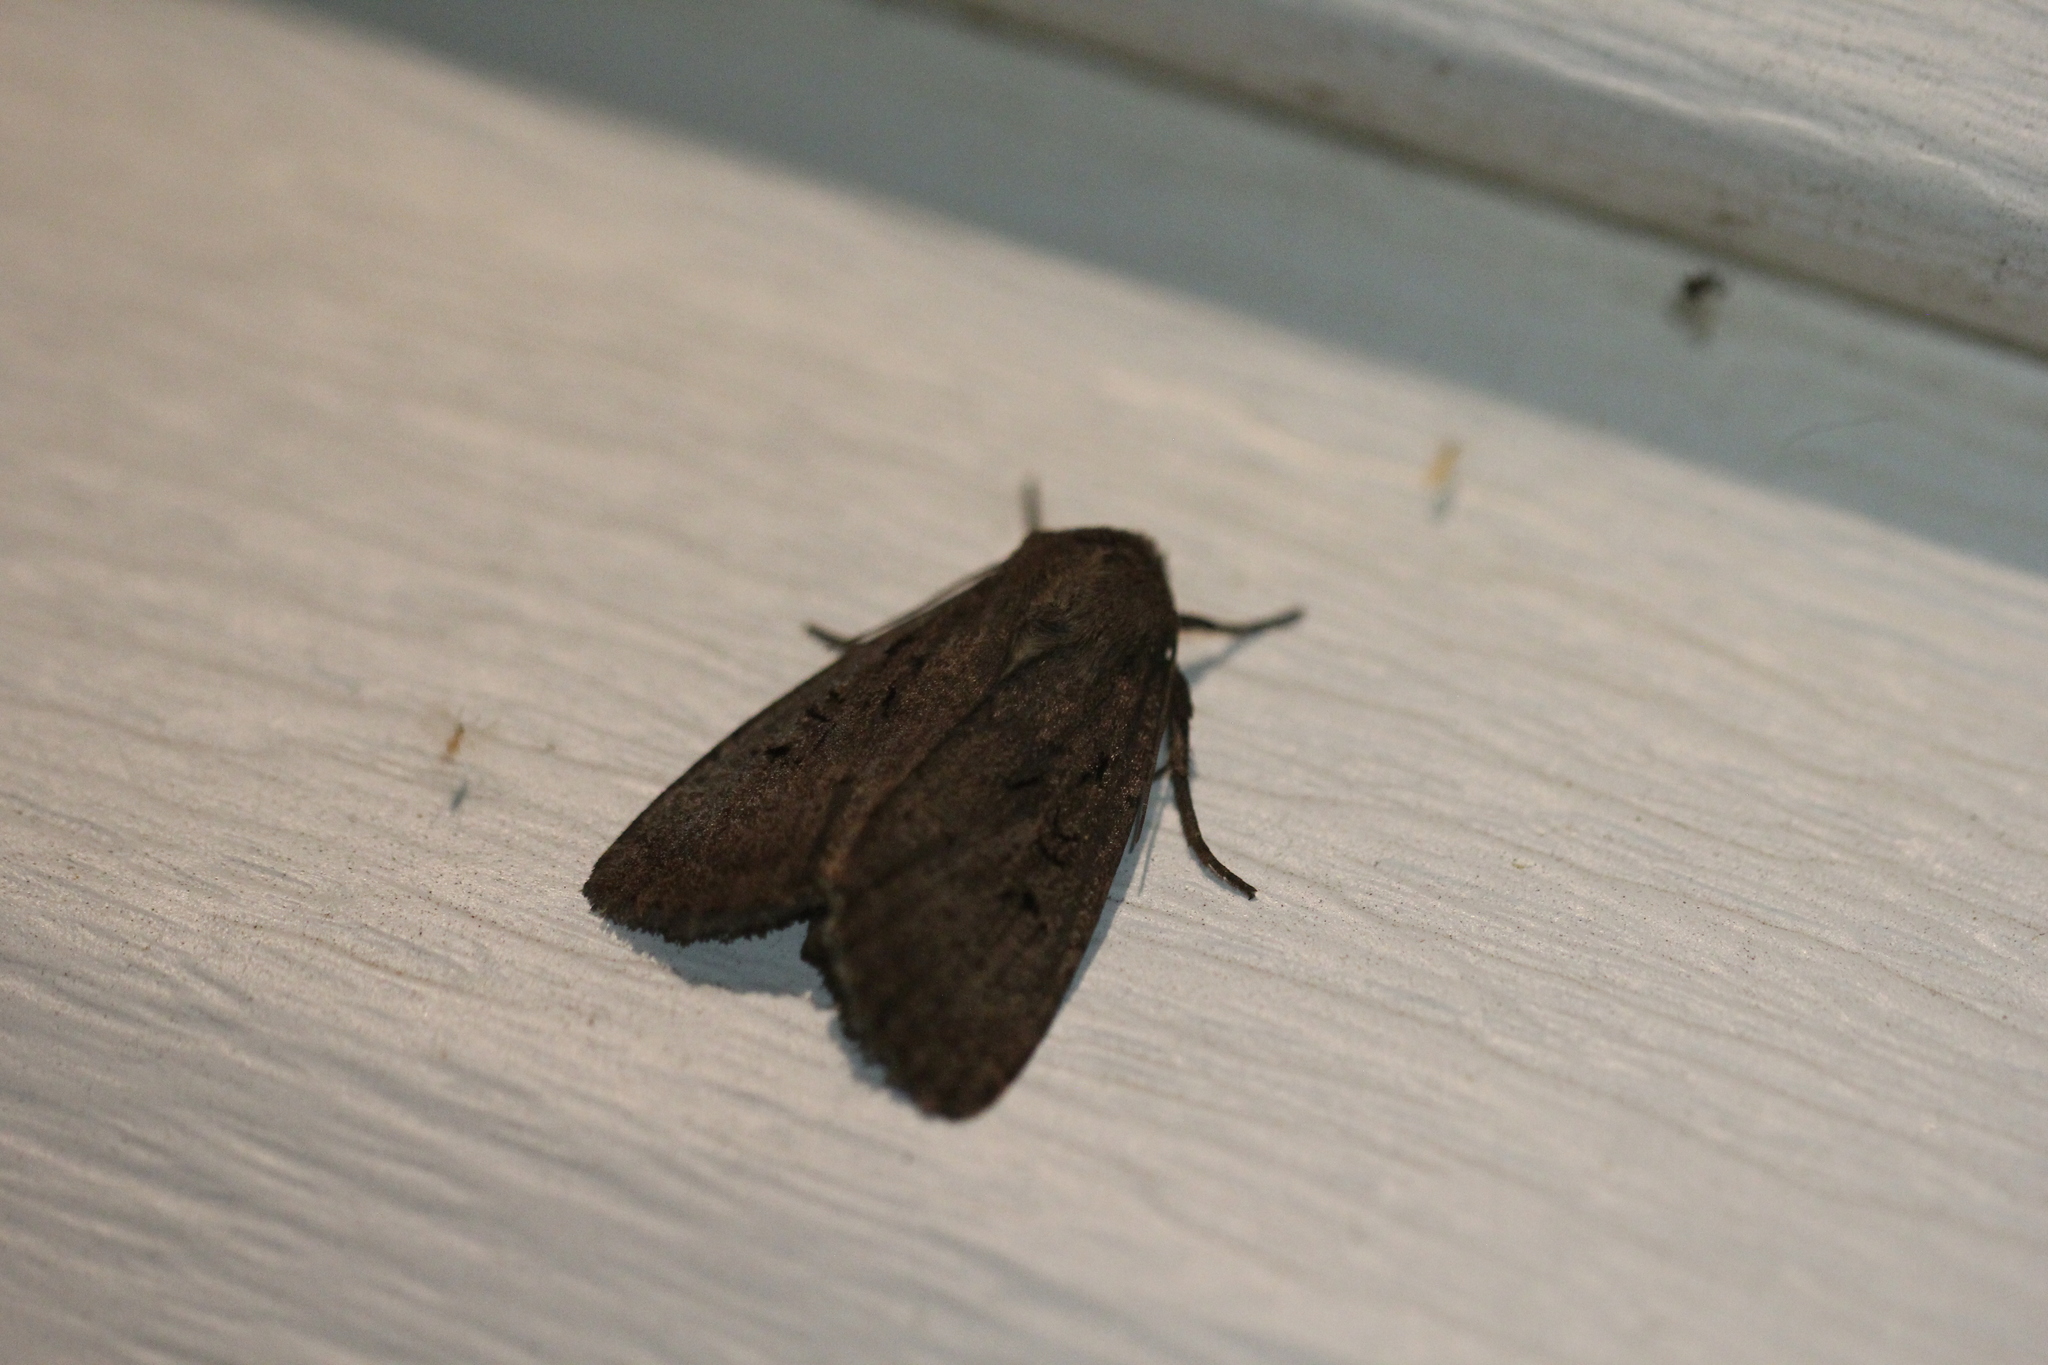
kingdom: Animalia
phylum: Arthropoda
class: Insecta
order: Lepidoptera
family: Noctuidae
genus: Graphiphora
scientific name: Graphiphora augur
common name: Double dart
